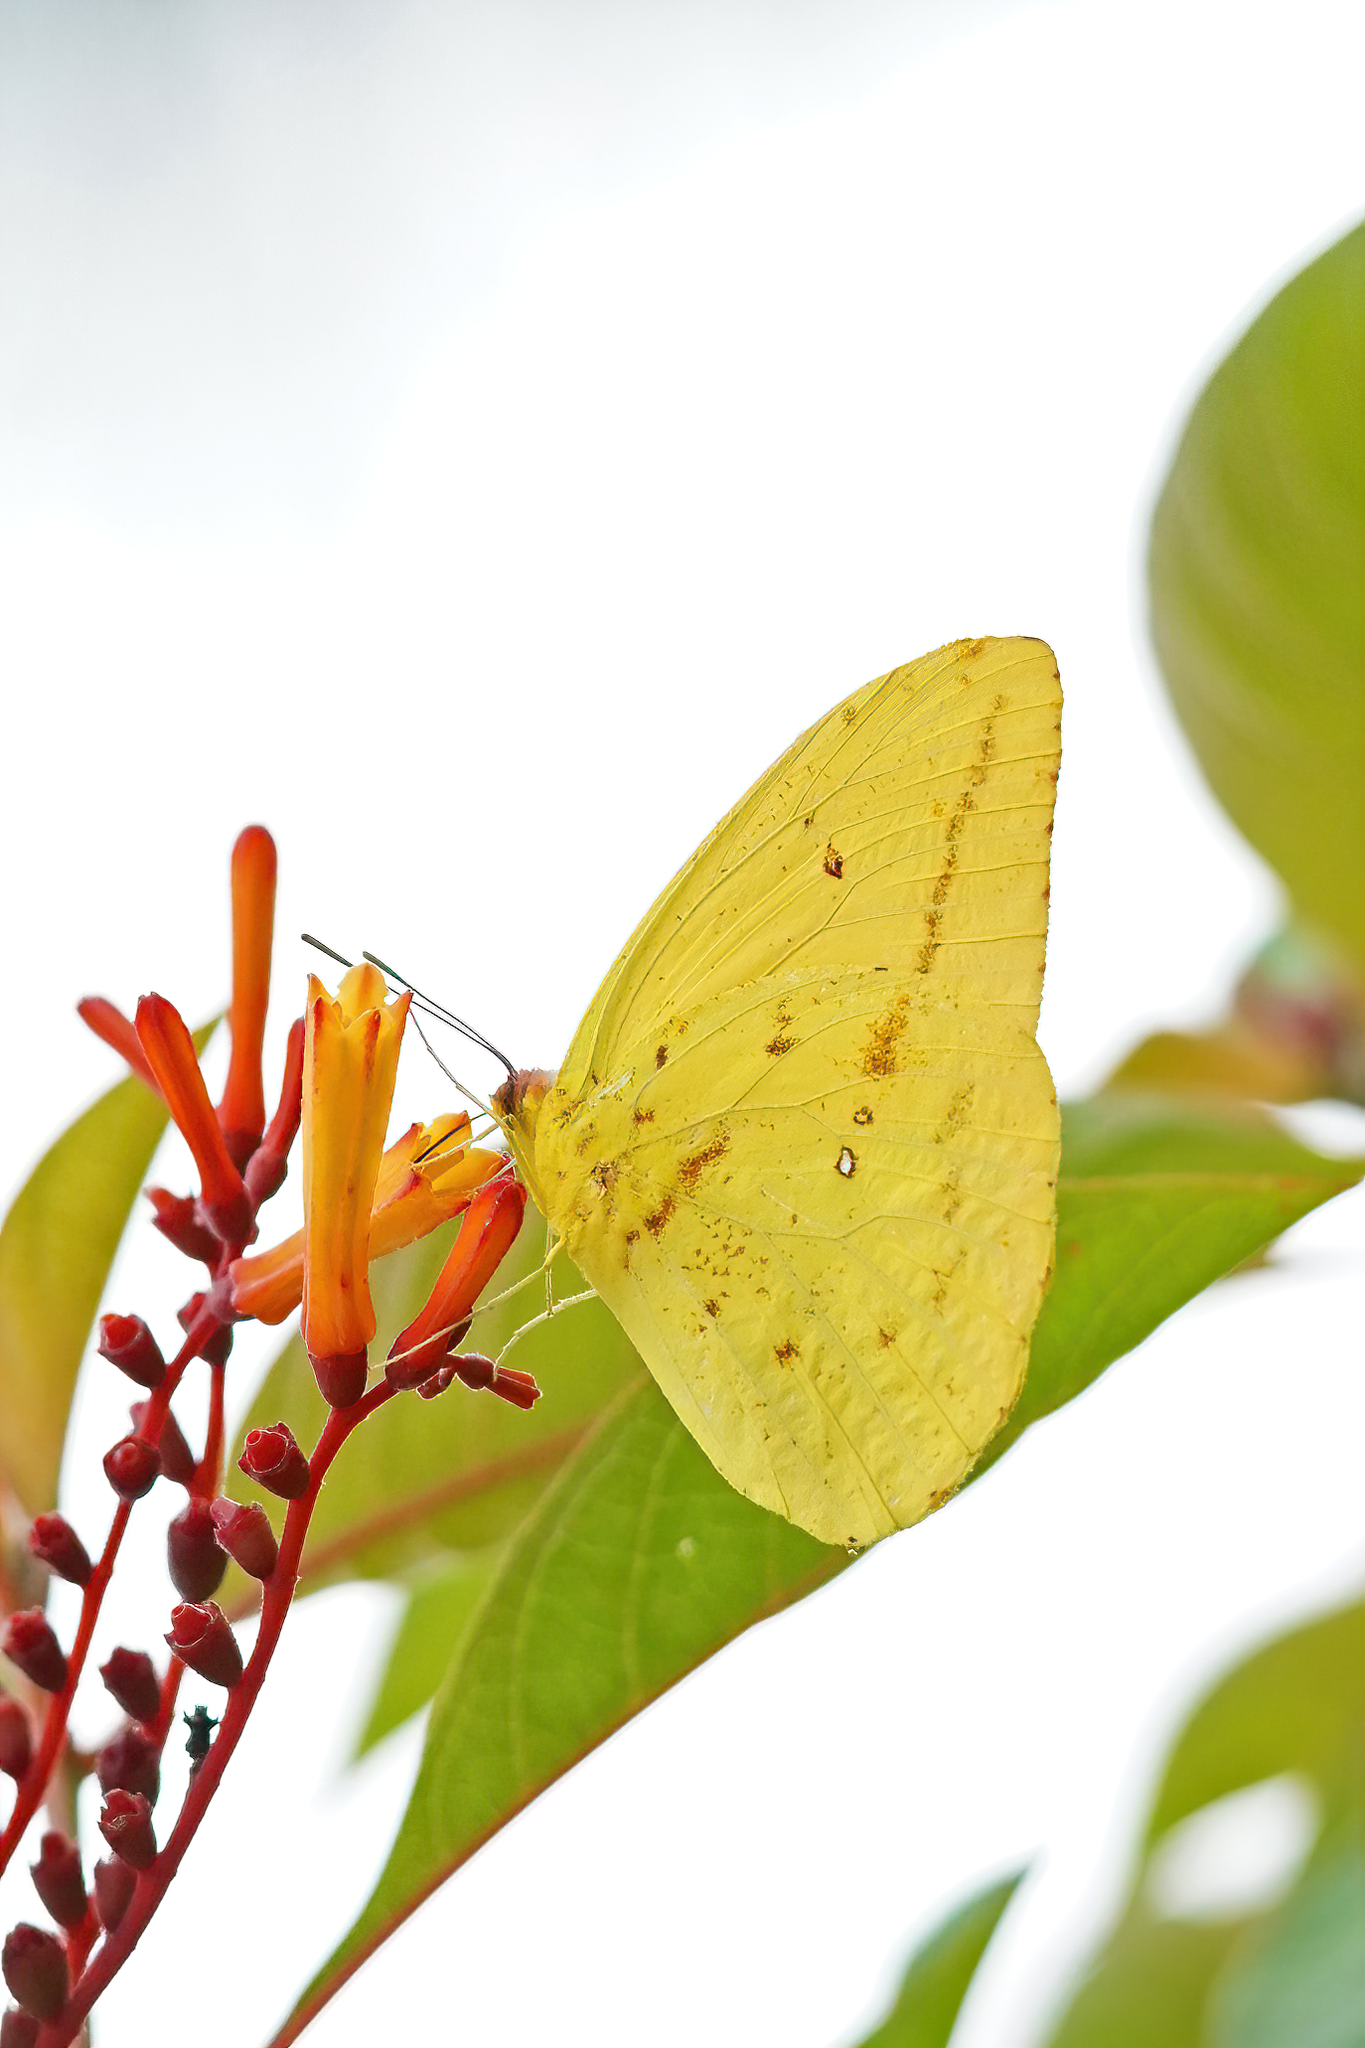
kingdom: Animalia
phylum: Arthropoda
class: Insecta
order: Lepidoptera
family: Pieridae
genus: Phoebis
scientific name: Phoebis agarithe
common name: Large orange sulphur
